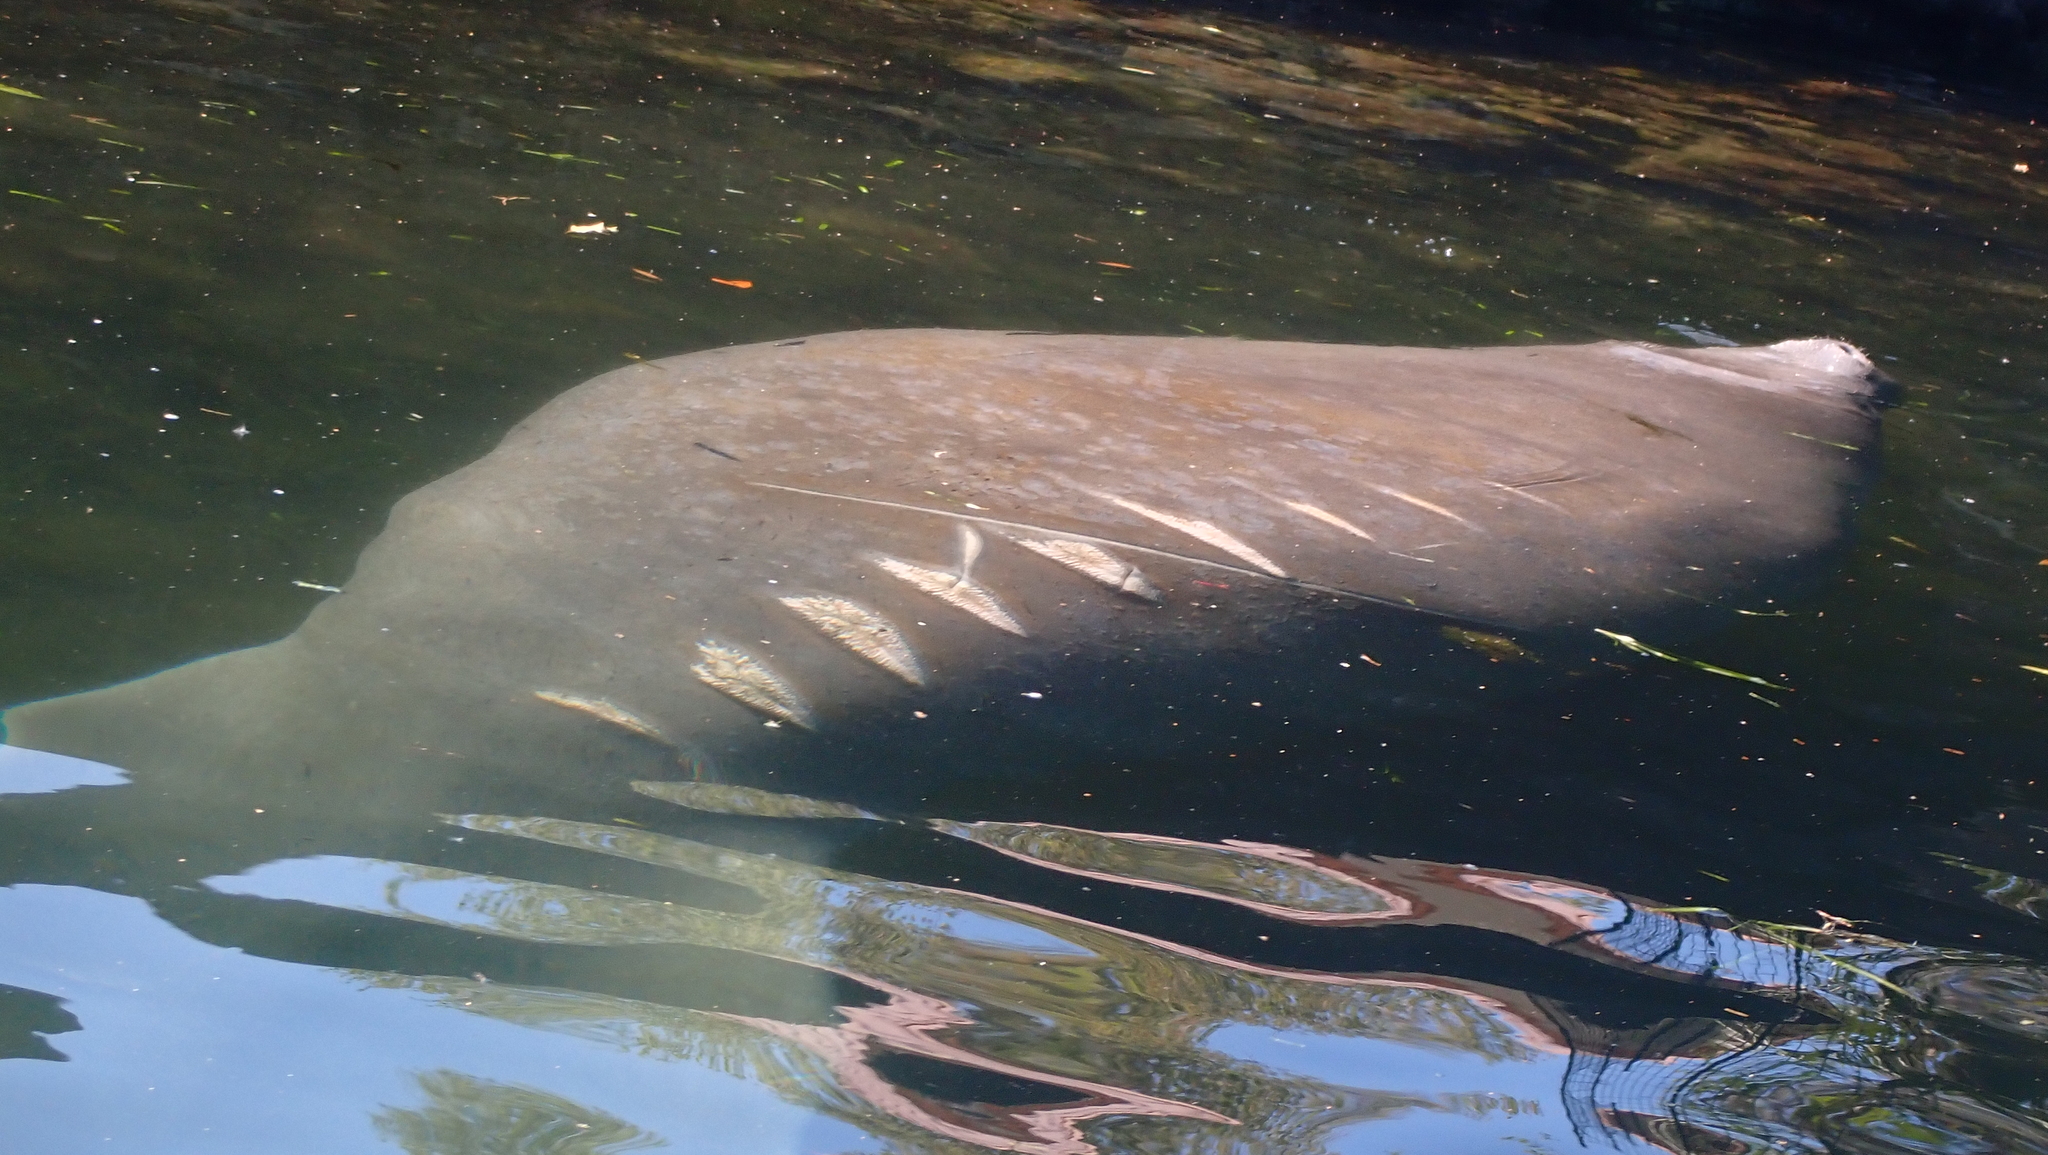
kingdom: Animalia
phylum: Chordata
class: Mammalia
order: Sirenia
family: Trichechidae
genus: Trichechus
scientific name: Trichechus manatus
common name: West indian manatee
